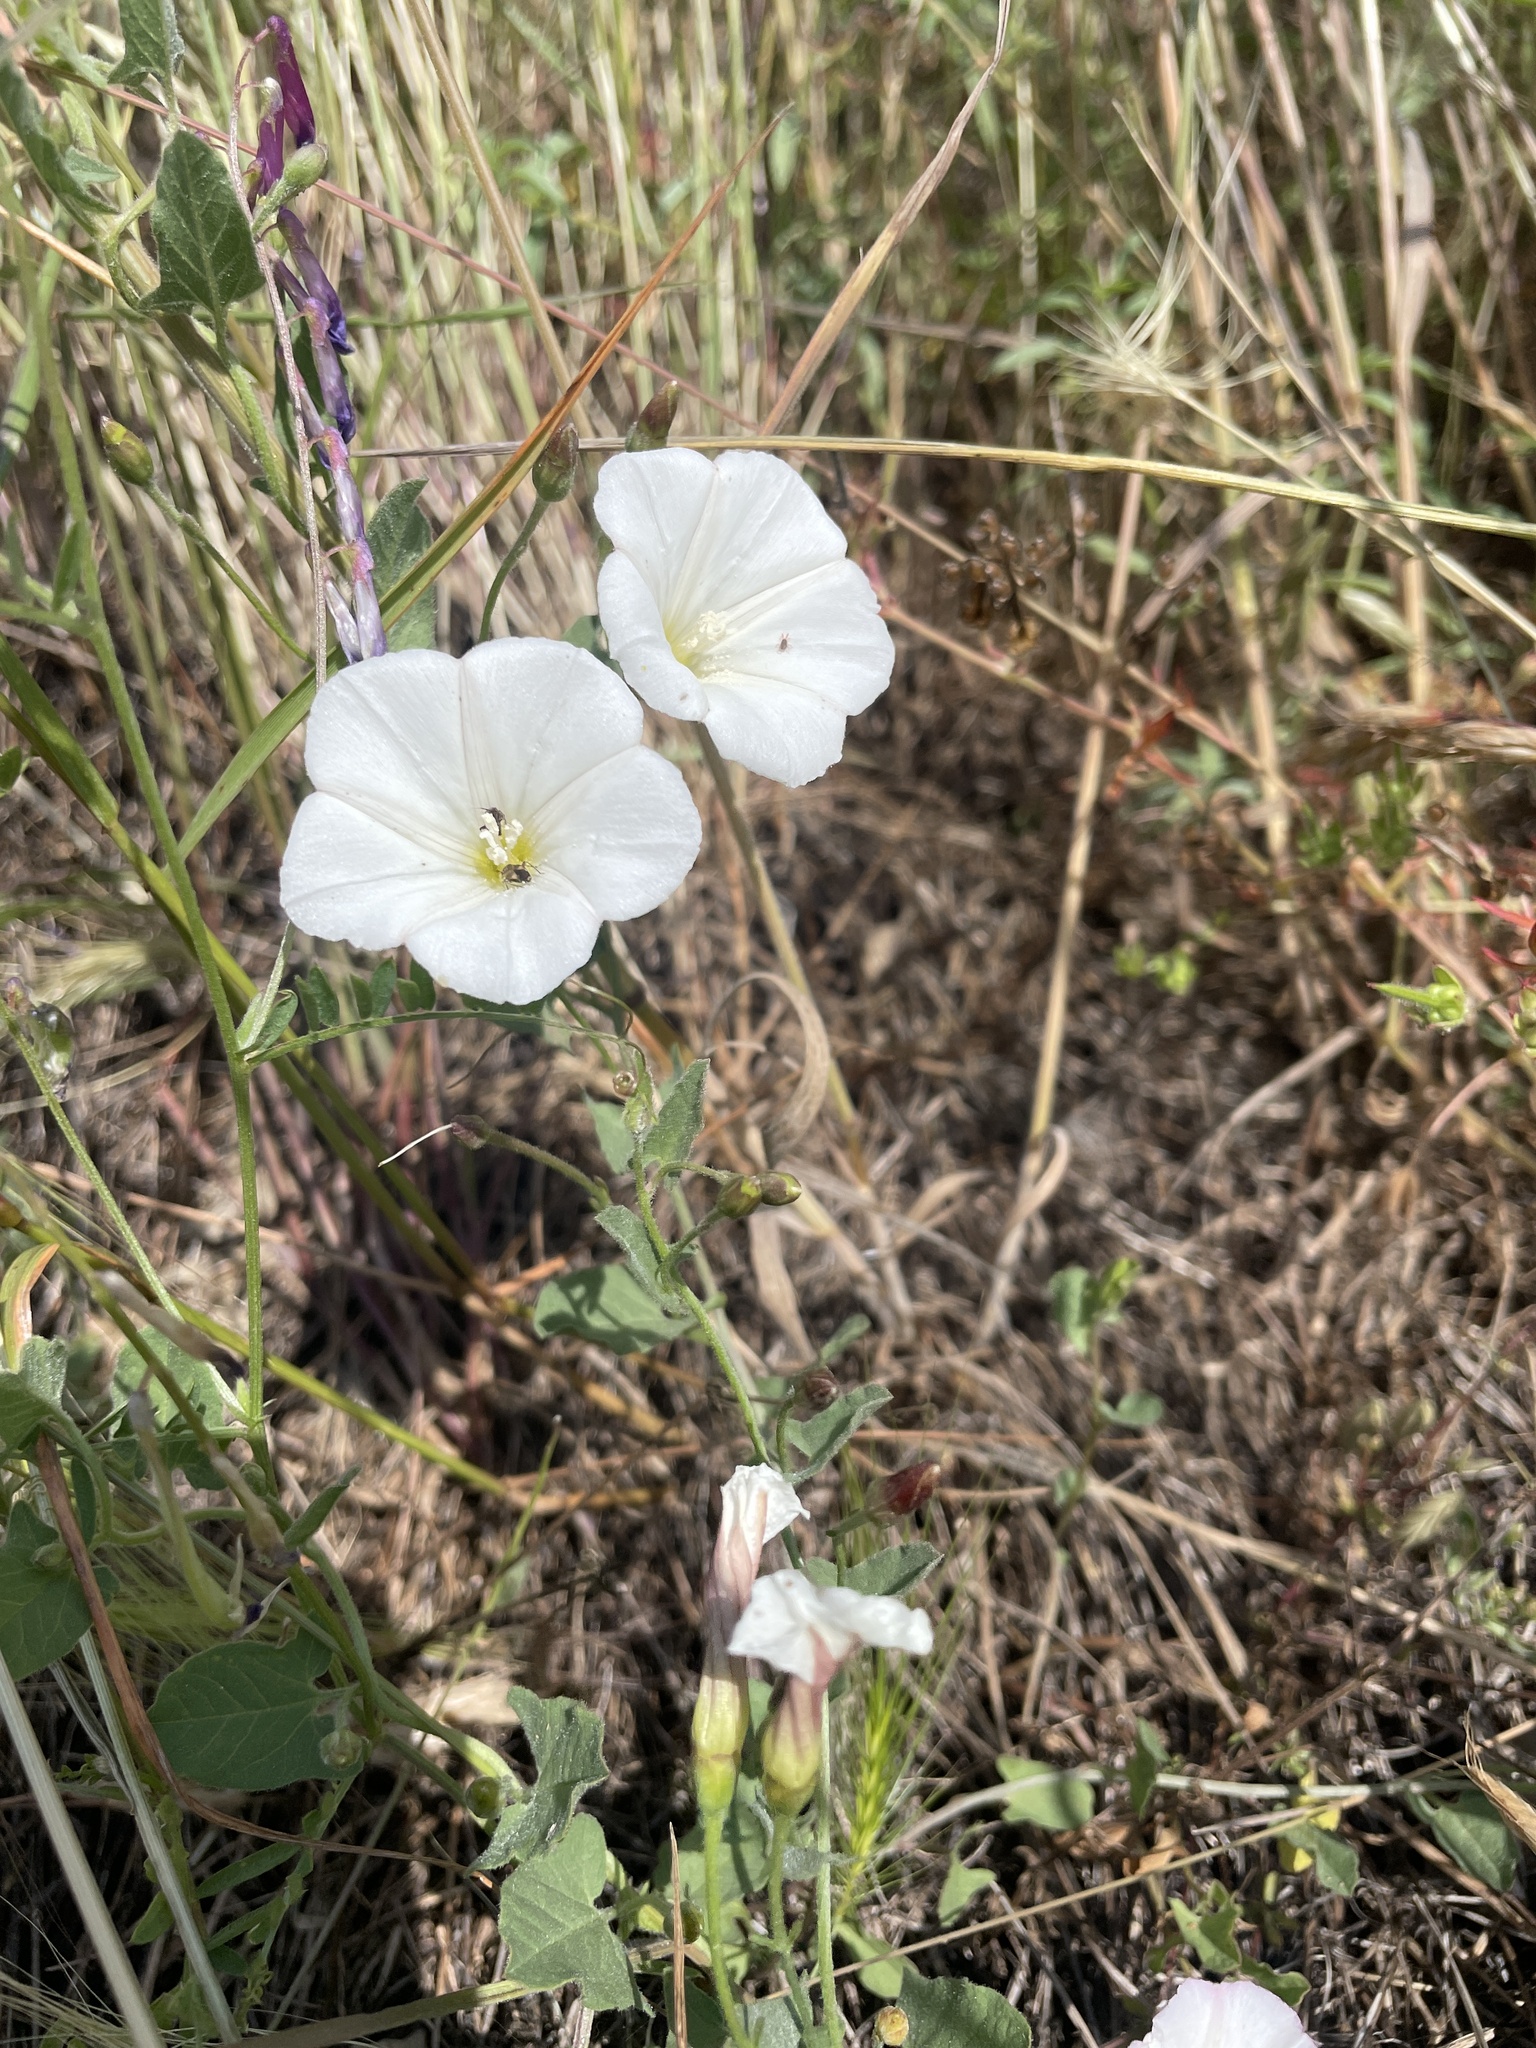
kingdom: Plantae
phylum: Tracheophyta
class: Magnoliopsida
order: Solanales
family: Convolvulaceae
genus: Convolvulus
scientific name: Convolvulus arvensis
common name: Field bindweed
